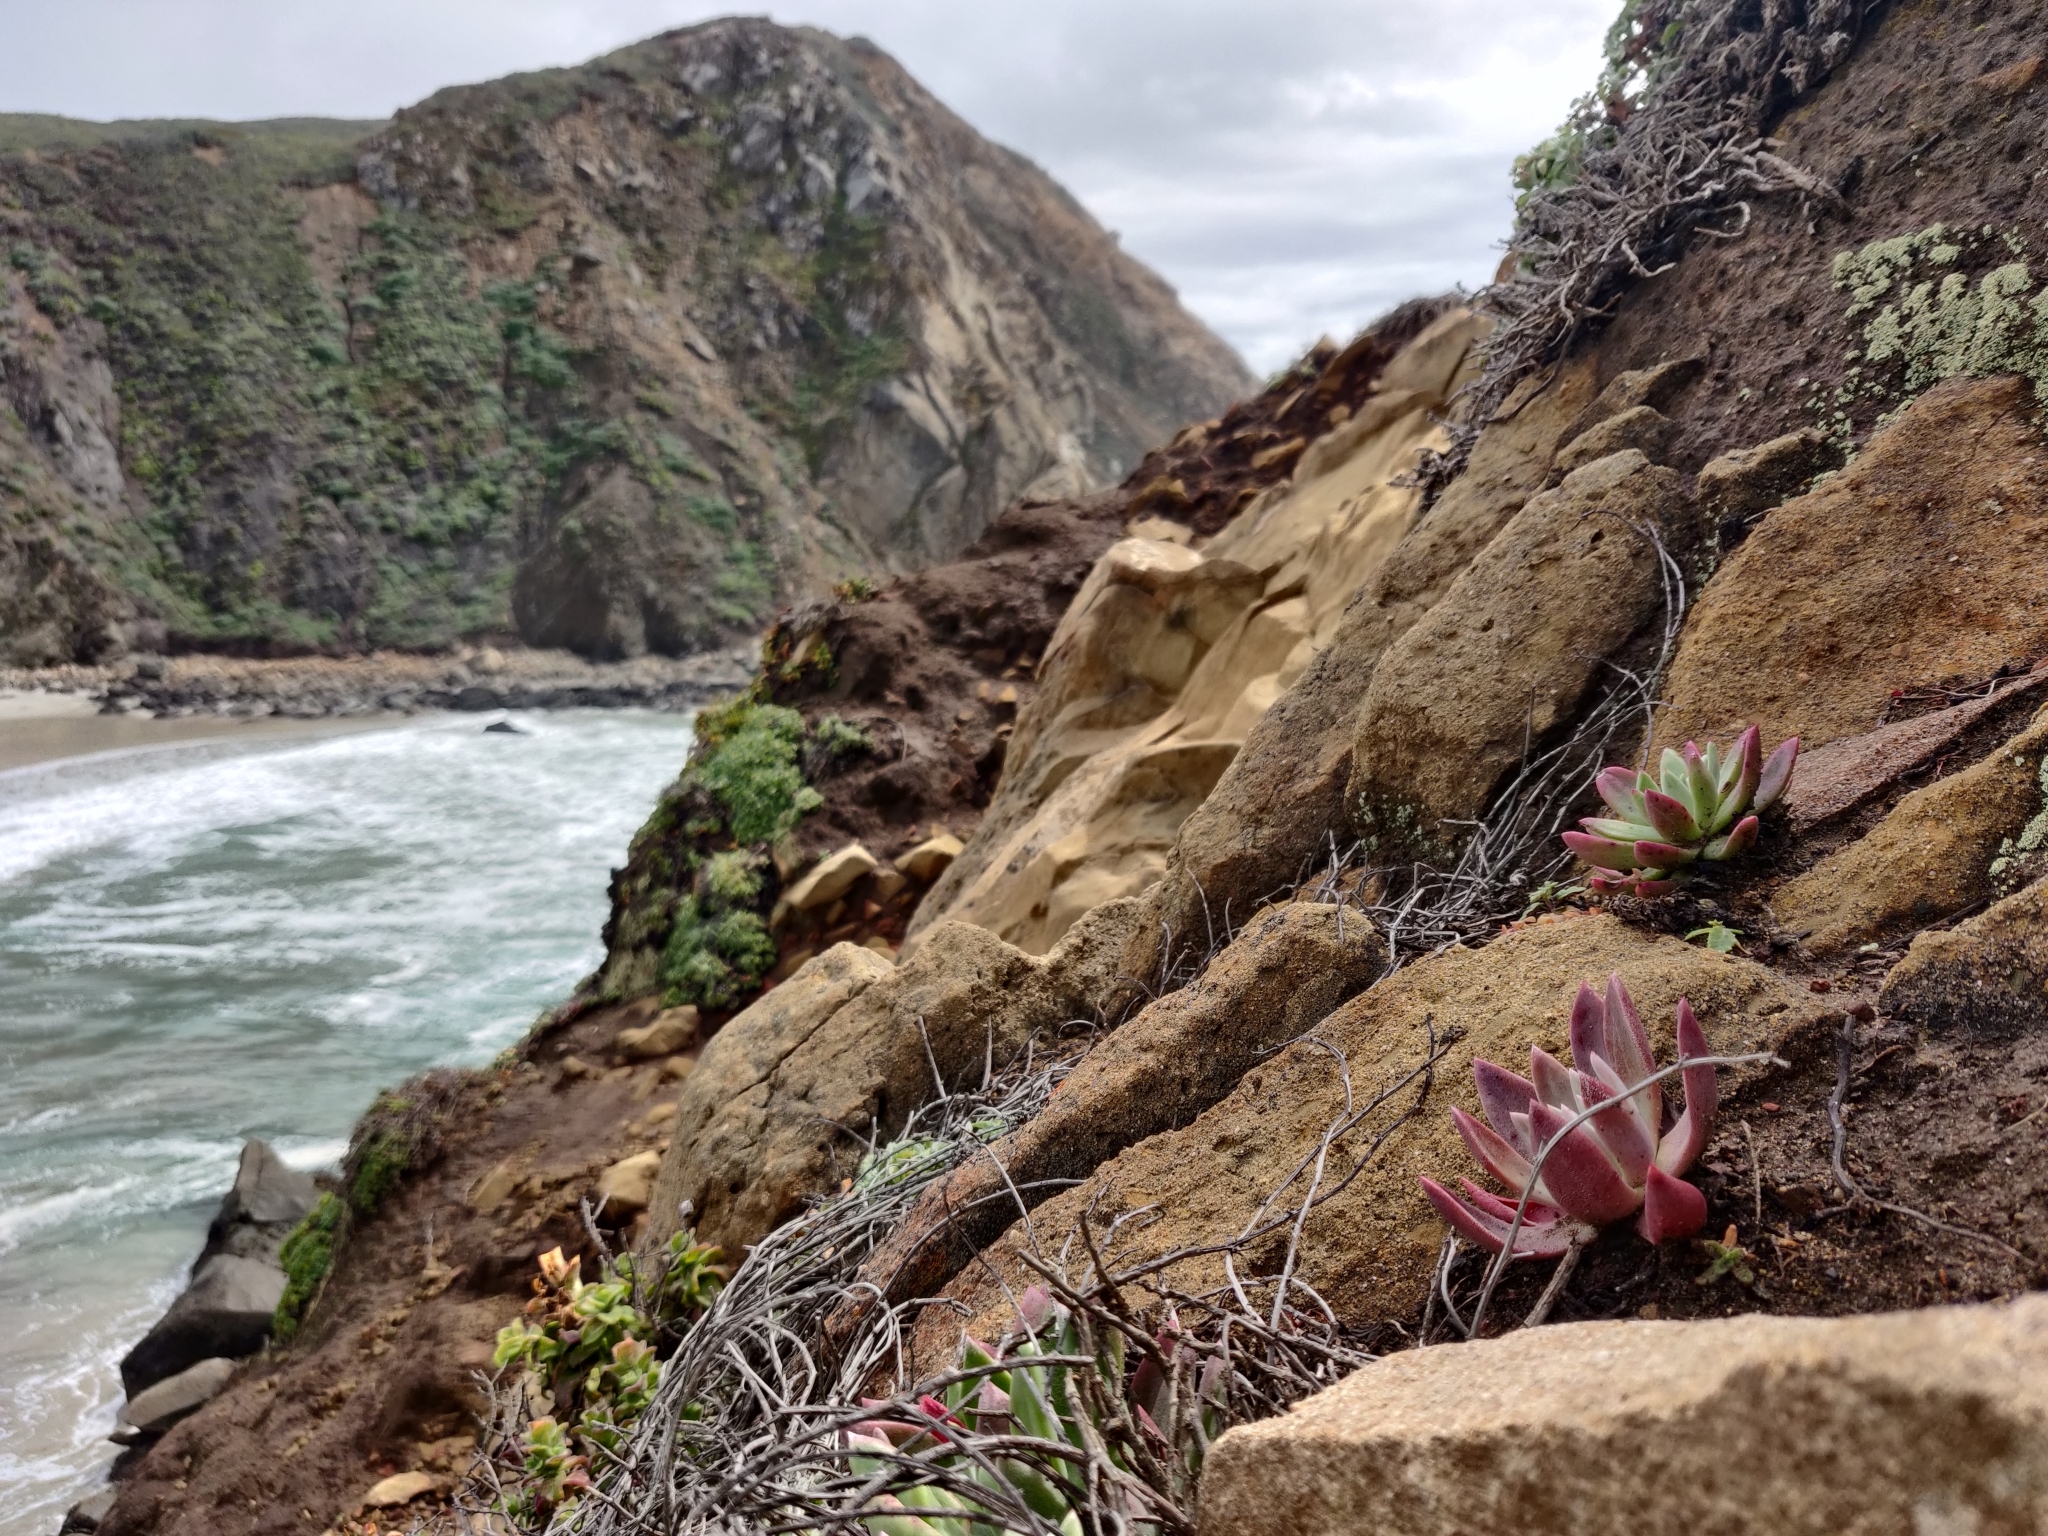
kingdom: Plantae
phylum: Tracheophyta
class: Magnoliopsida
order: Saxifragales
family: Crassulaceae
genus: Dudleya
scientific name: Dudleya caespitosa
